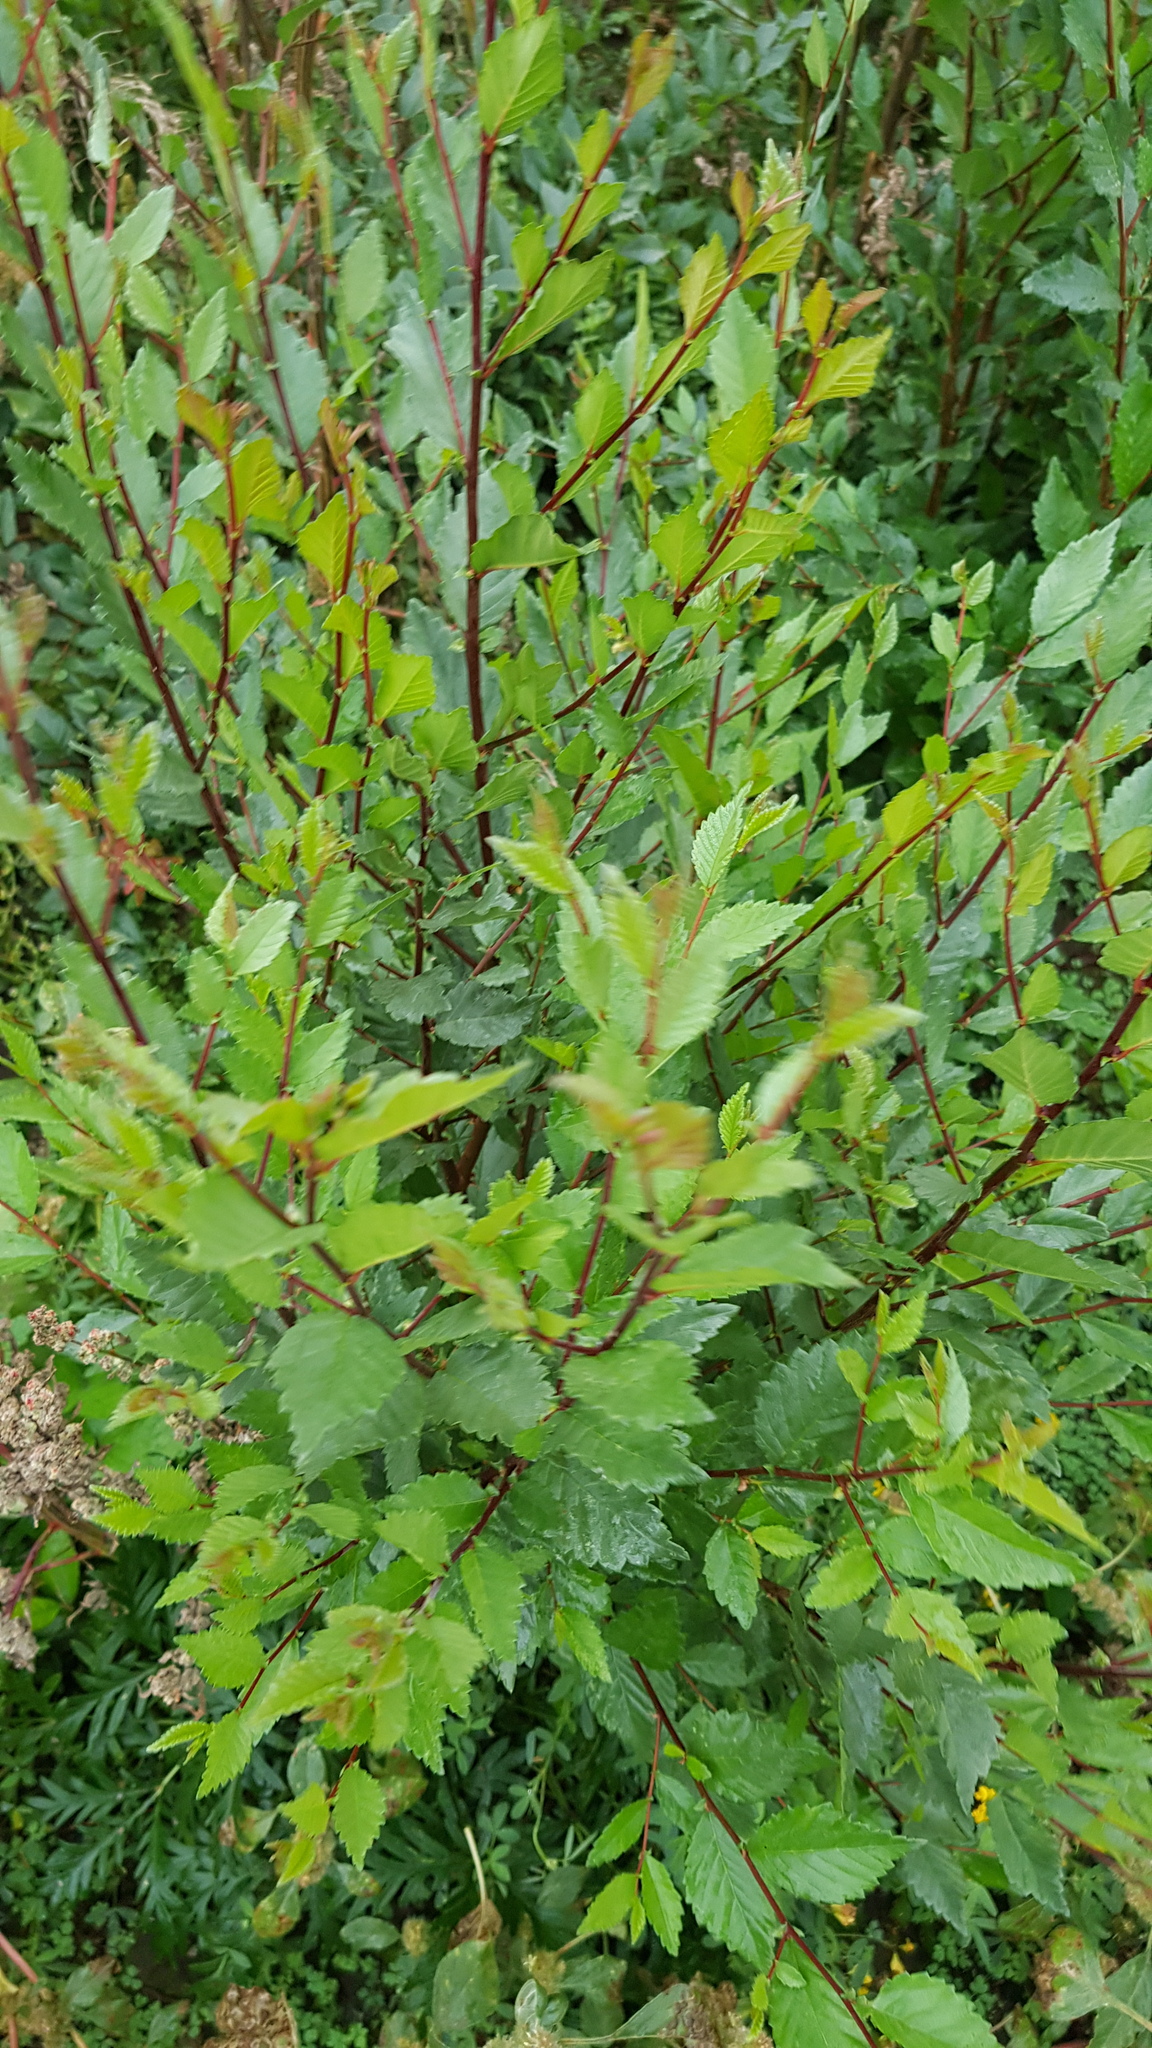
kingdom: Plantae
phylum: Tracheophyta
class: Magnoliopsida
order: Rosales
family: Ulmaceae
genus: Ulmus
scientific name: Ulmus pumila
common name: Siberian elm
